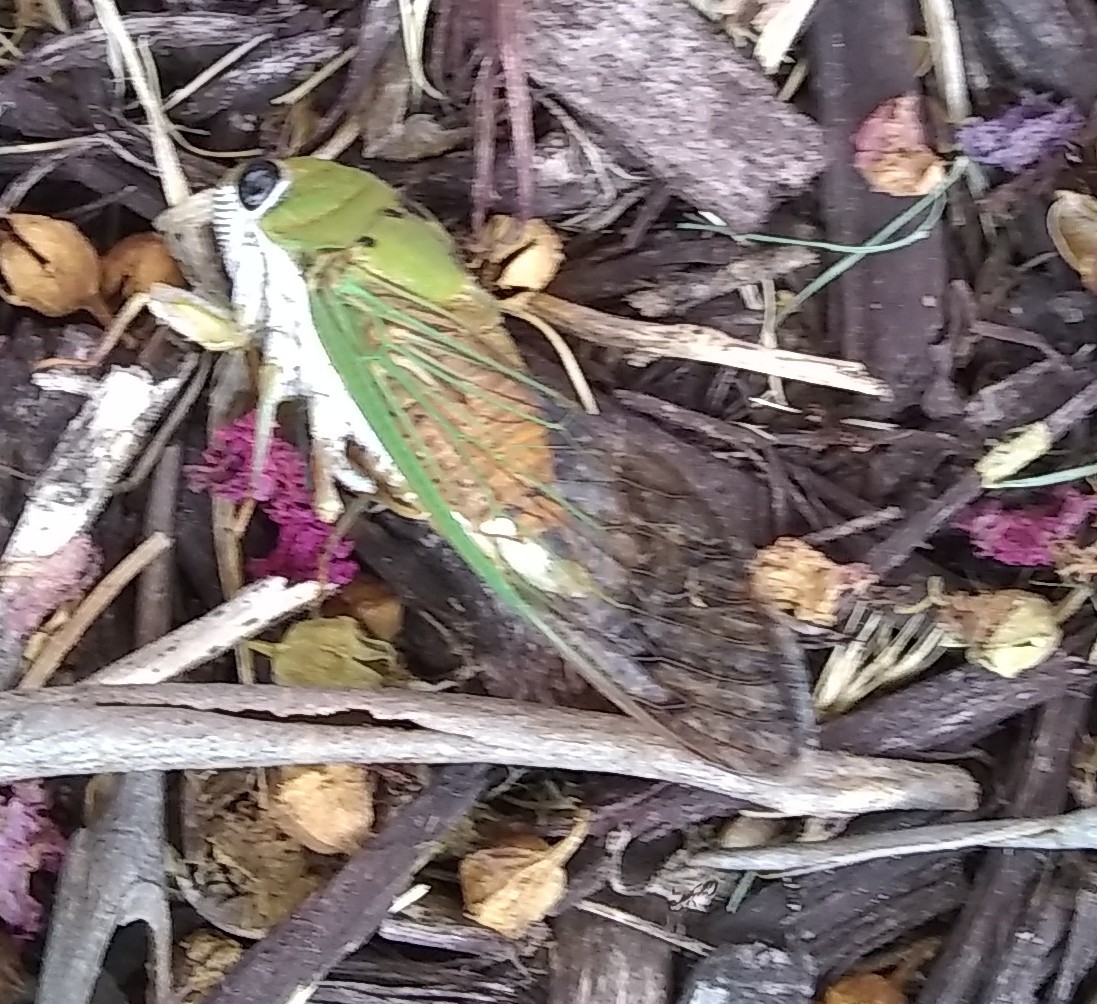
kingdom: Animalia
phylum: Arthropoda
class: Insecta
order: Hemiptera
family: Cicadidae
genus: Neotibicen
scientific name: Neotibicen superbus
